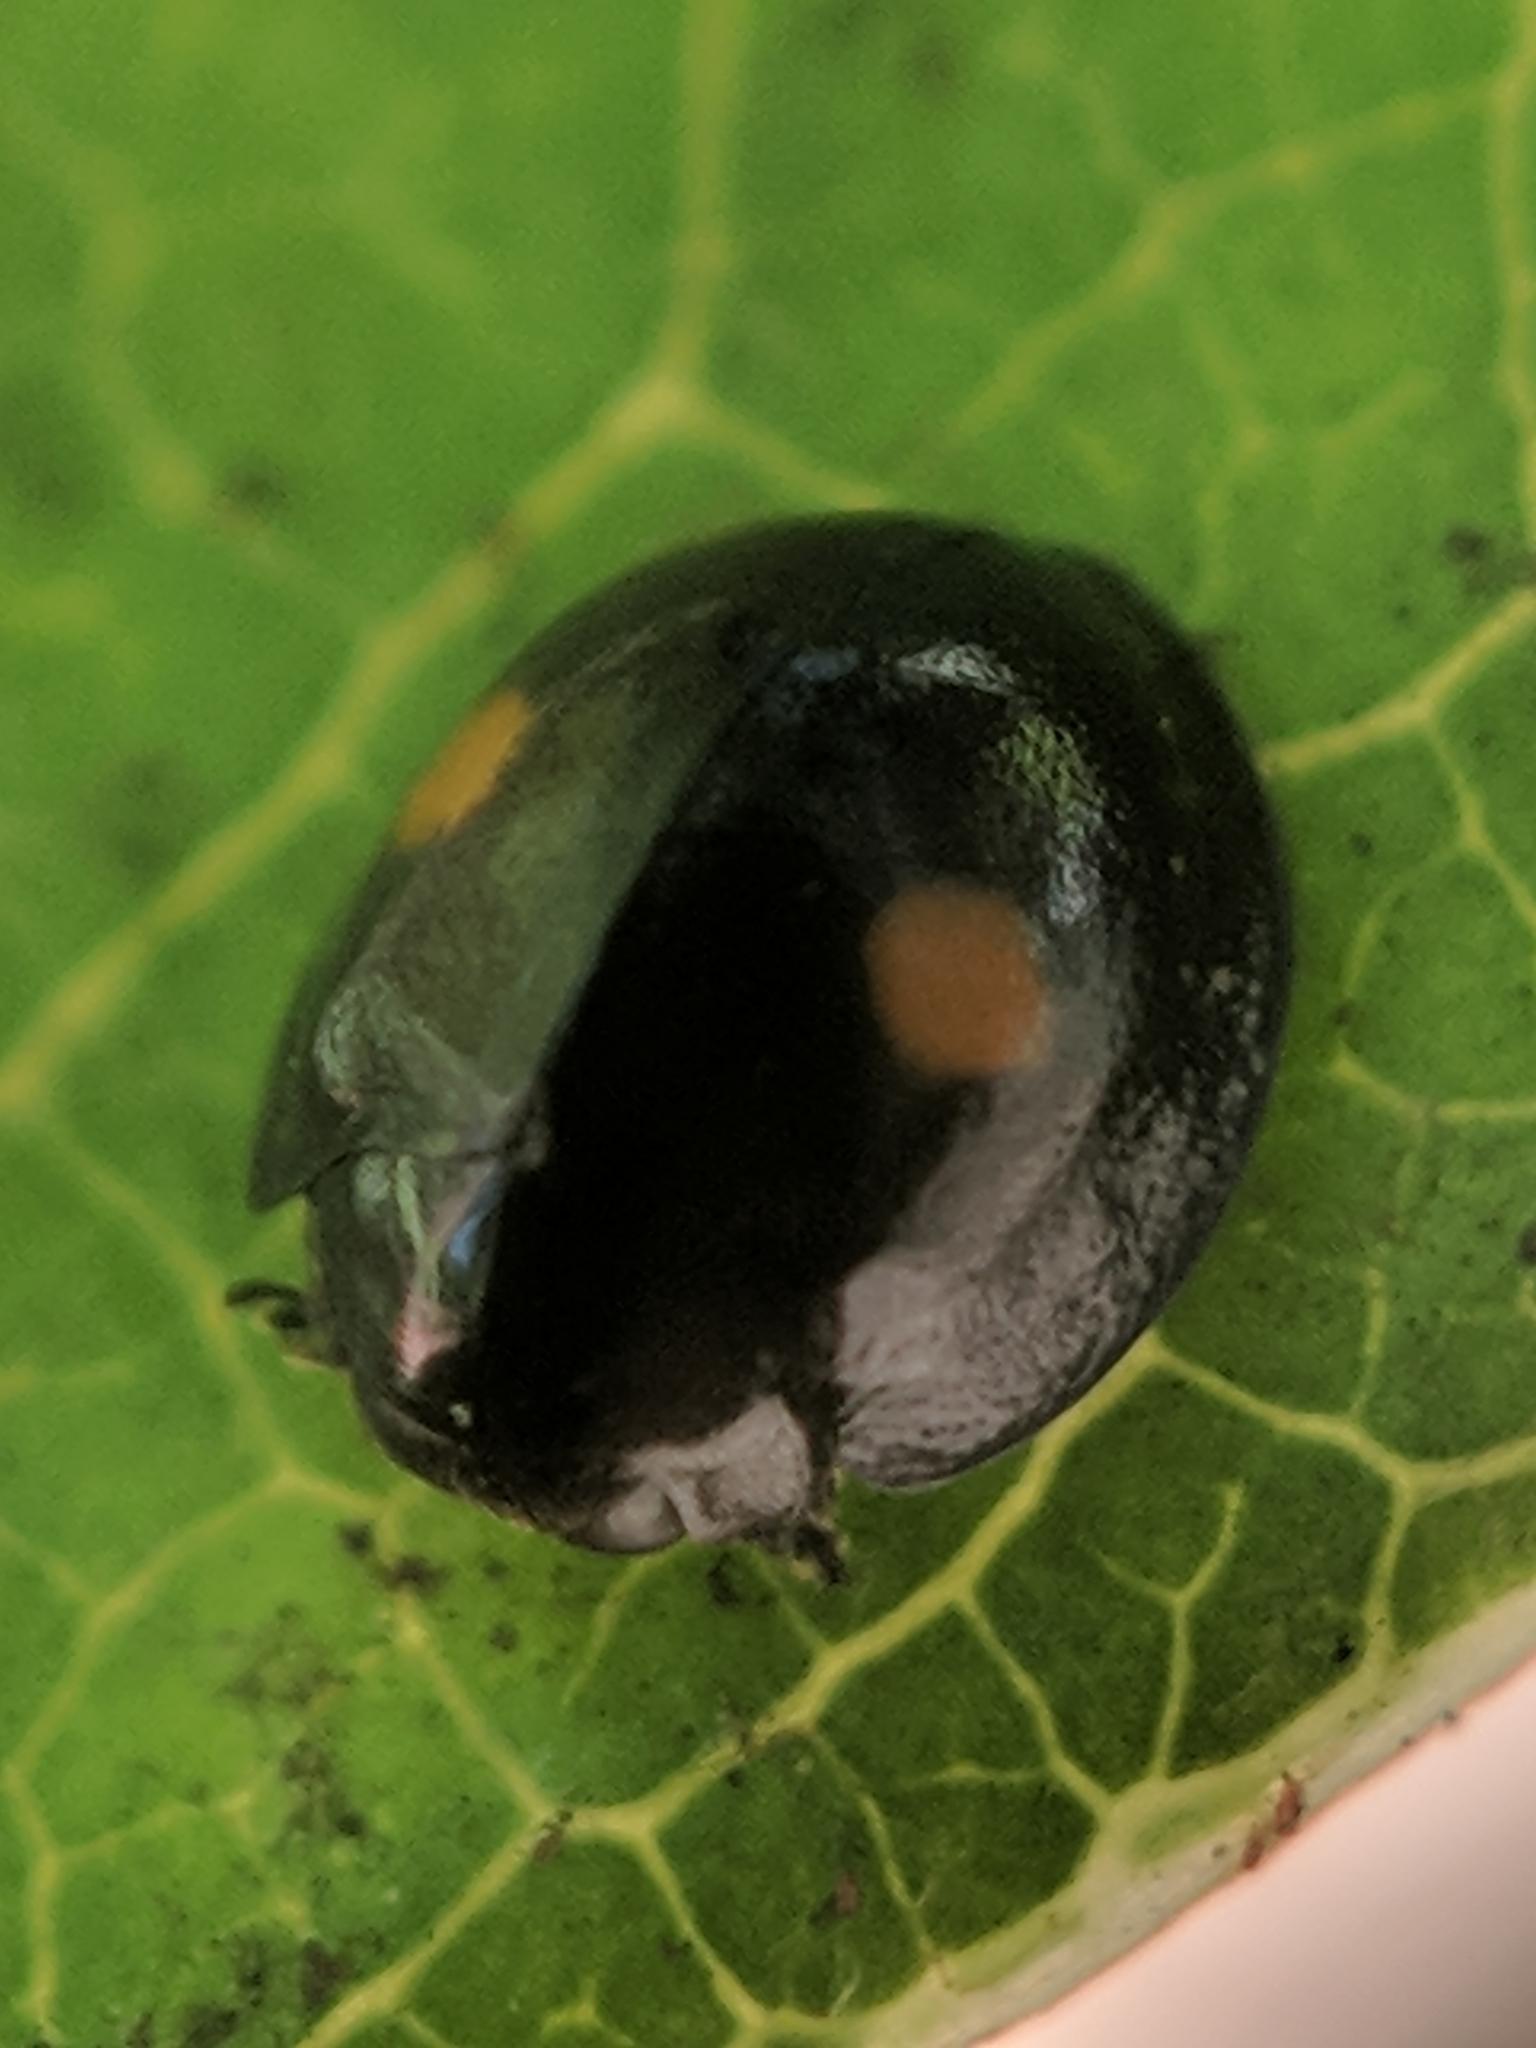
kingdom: Animalia
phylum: Arthropoda
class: Insecta
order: Coleoptera
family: Coccinellidae
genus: Chilocorus
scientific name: Chilocorus stigma
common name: Twicestabbed lady beetle
